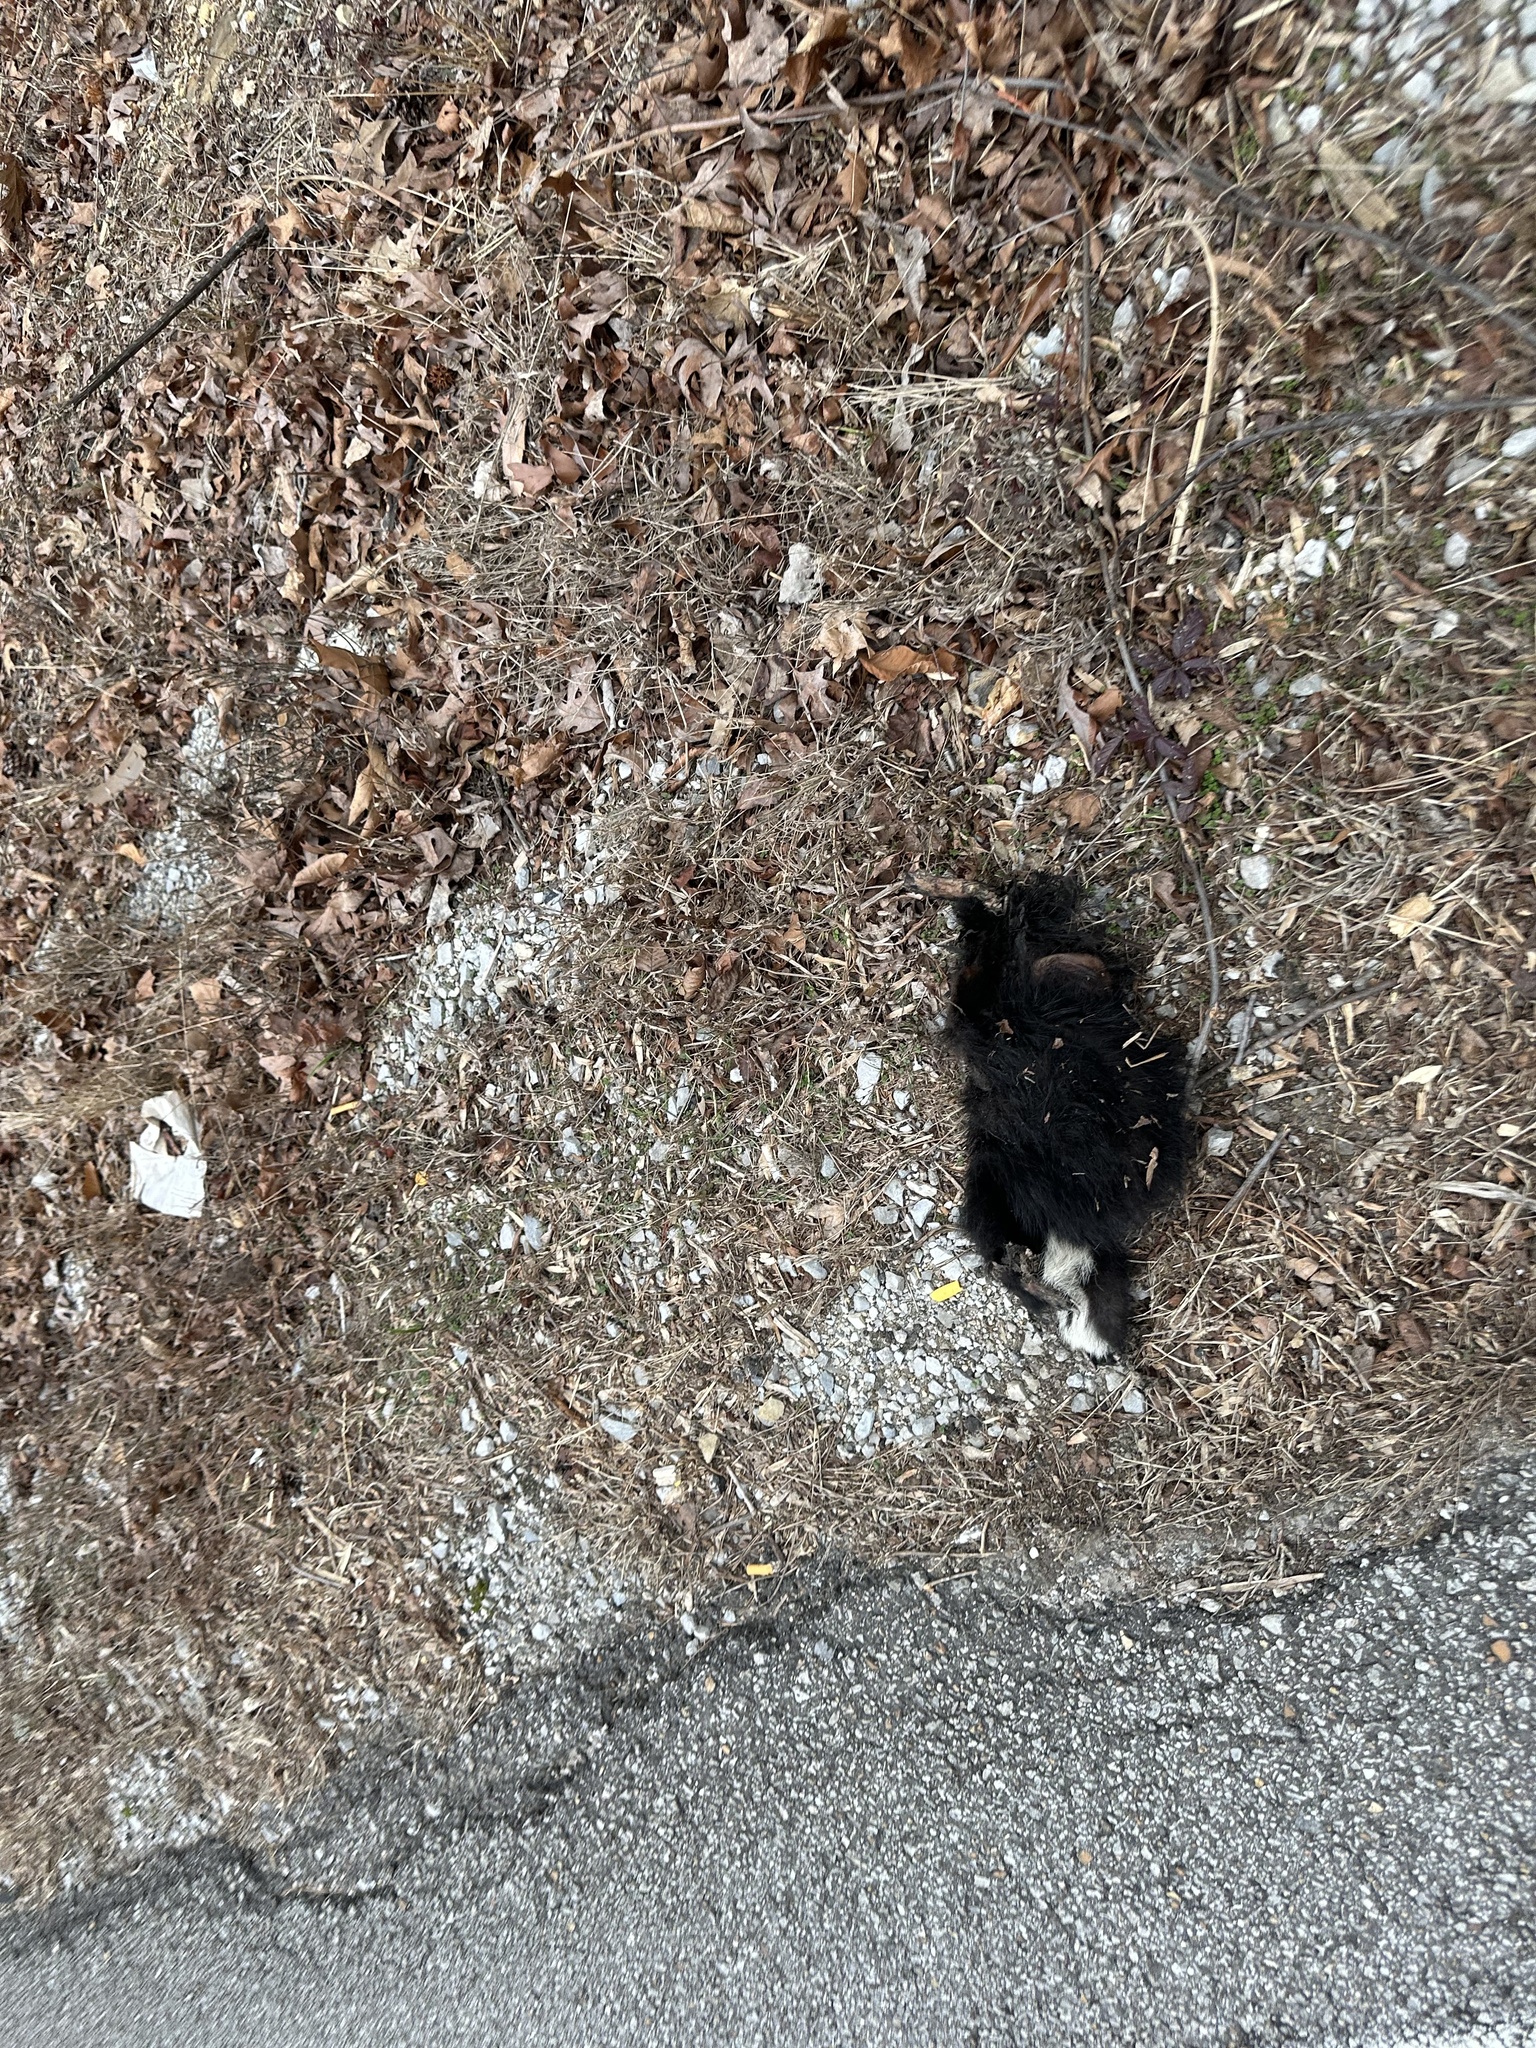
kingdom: Animalia
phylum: Chordata
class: Mammalia
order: Carnivora
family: Mephitidae
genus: Mephitis
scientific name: Mephitis mephitis
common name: Striped skunk
